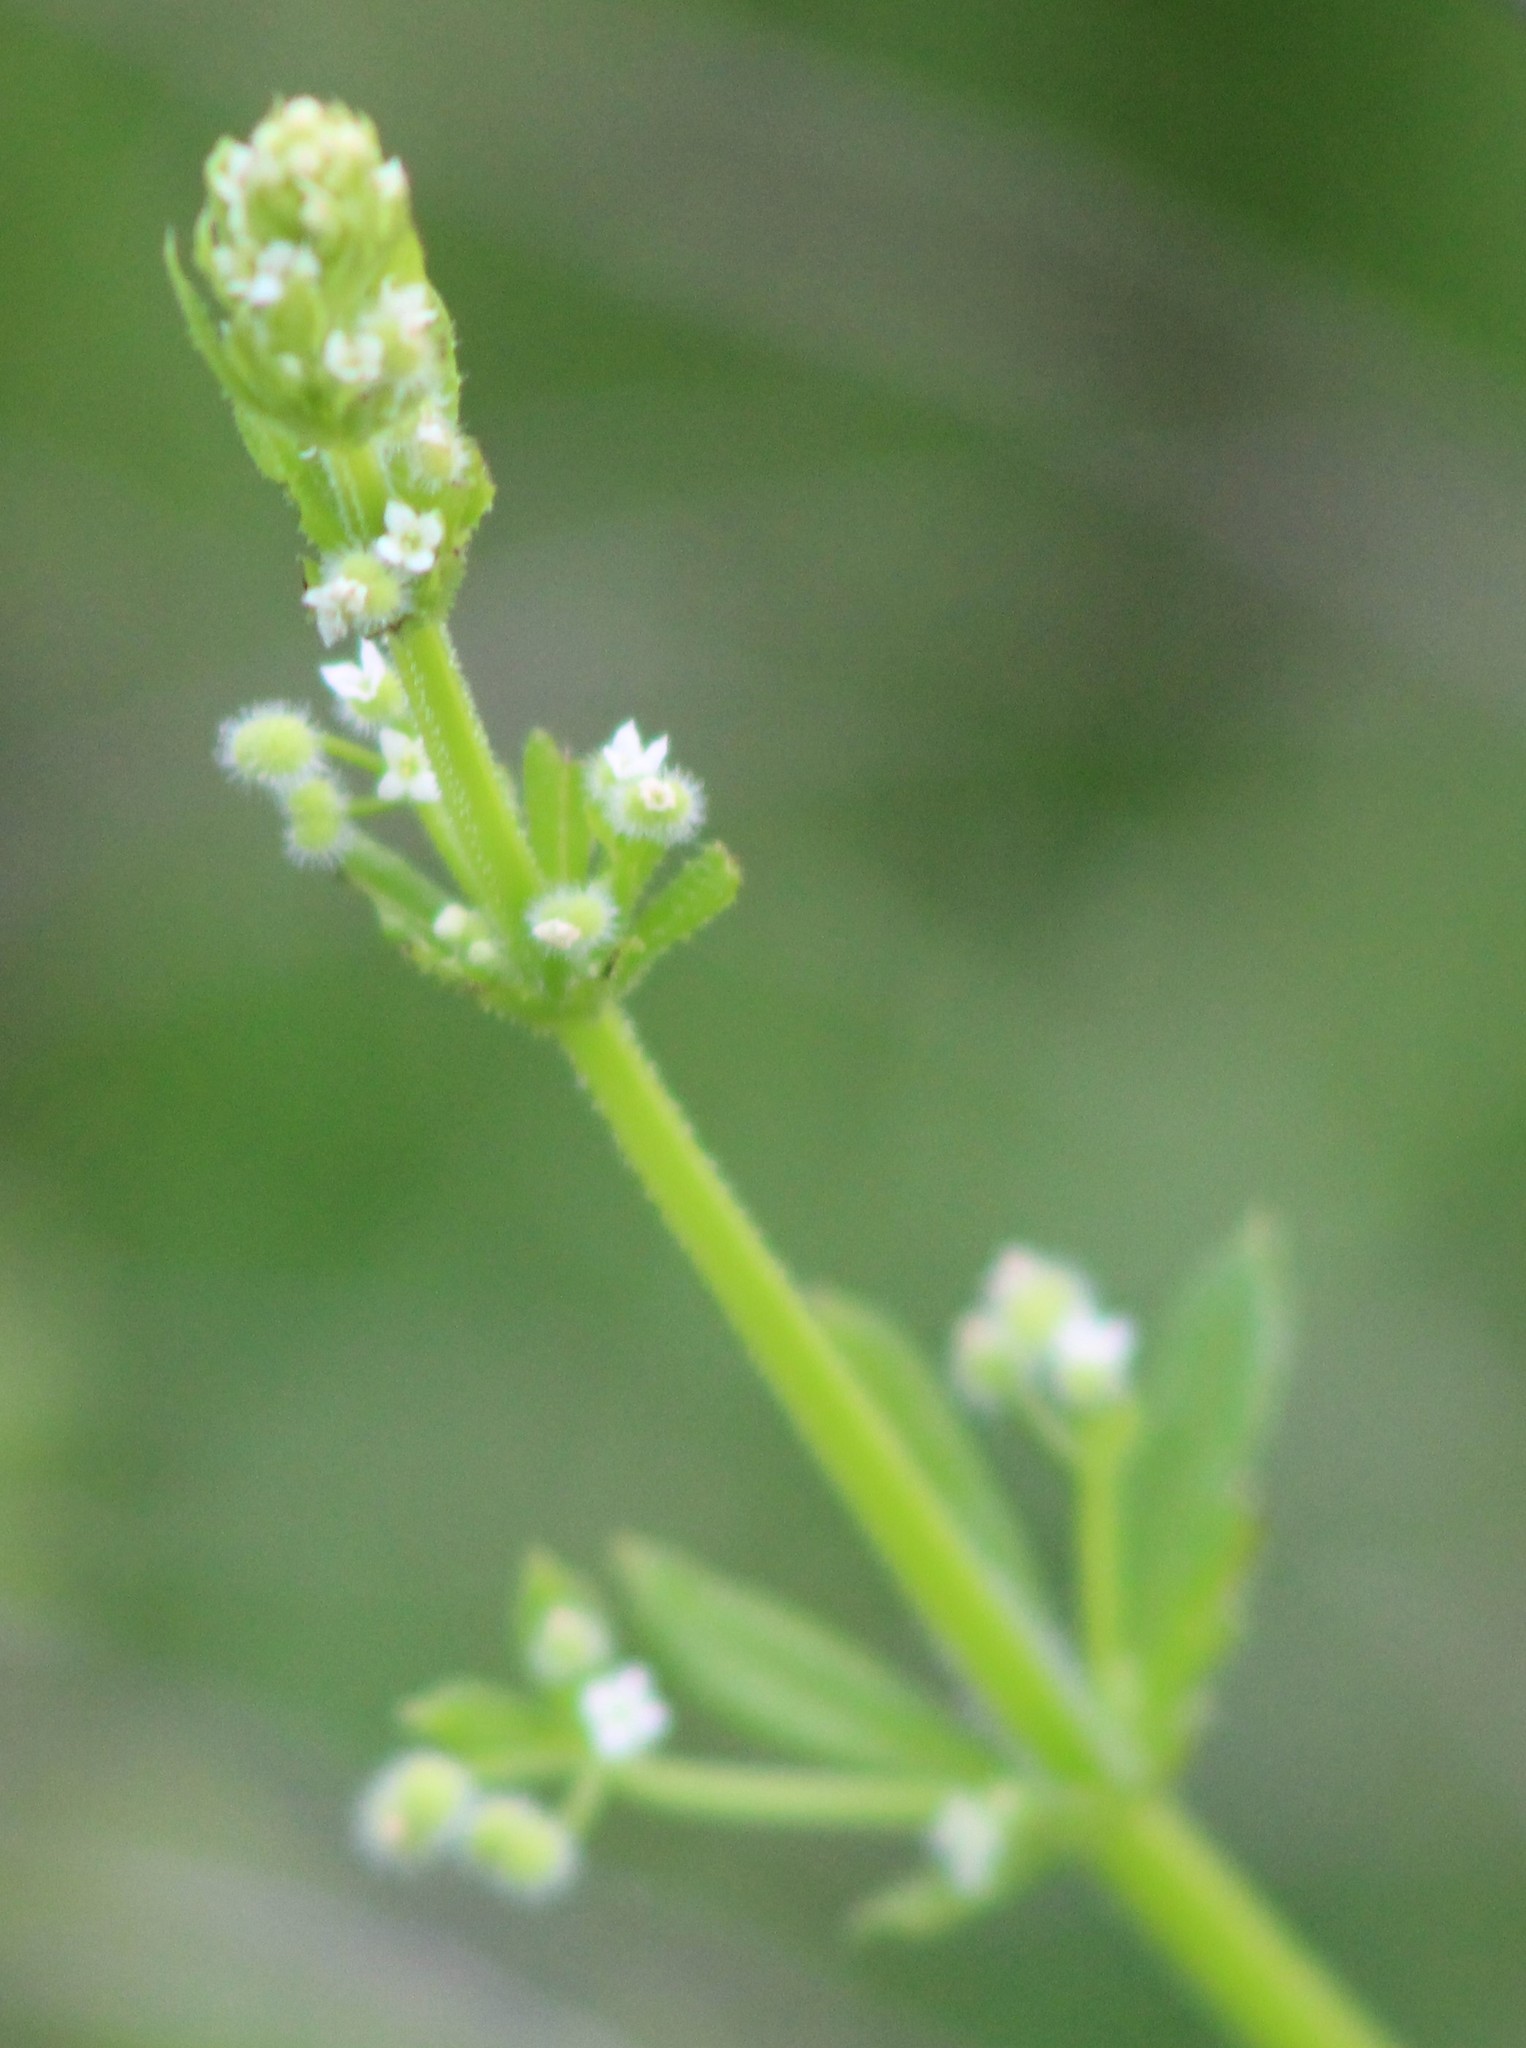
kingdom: Plantae
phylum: Tracheophyta
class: Magnoliopsida
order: Gentianales
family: Rubiaceae
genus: Galium
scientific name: Galium aparine
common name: Cleavers
